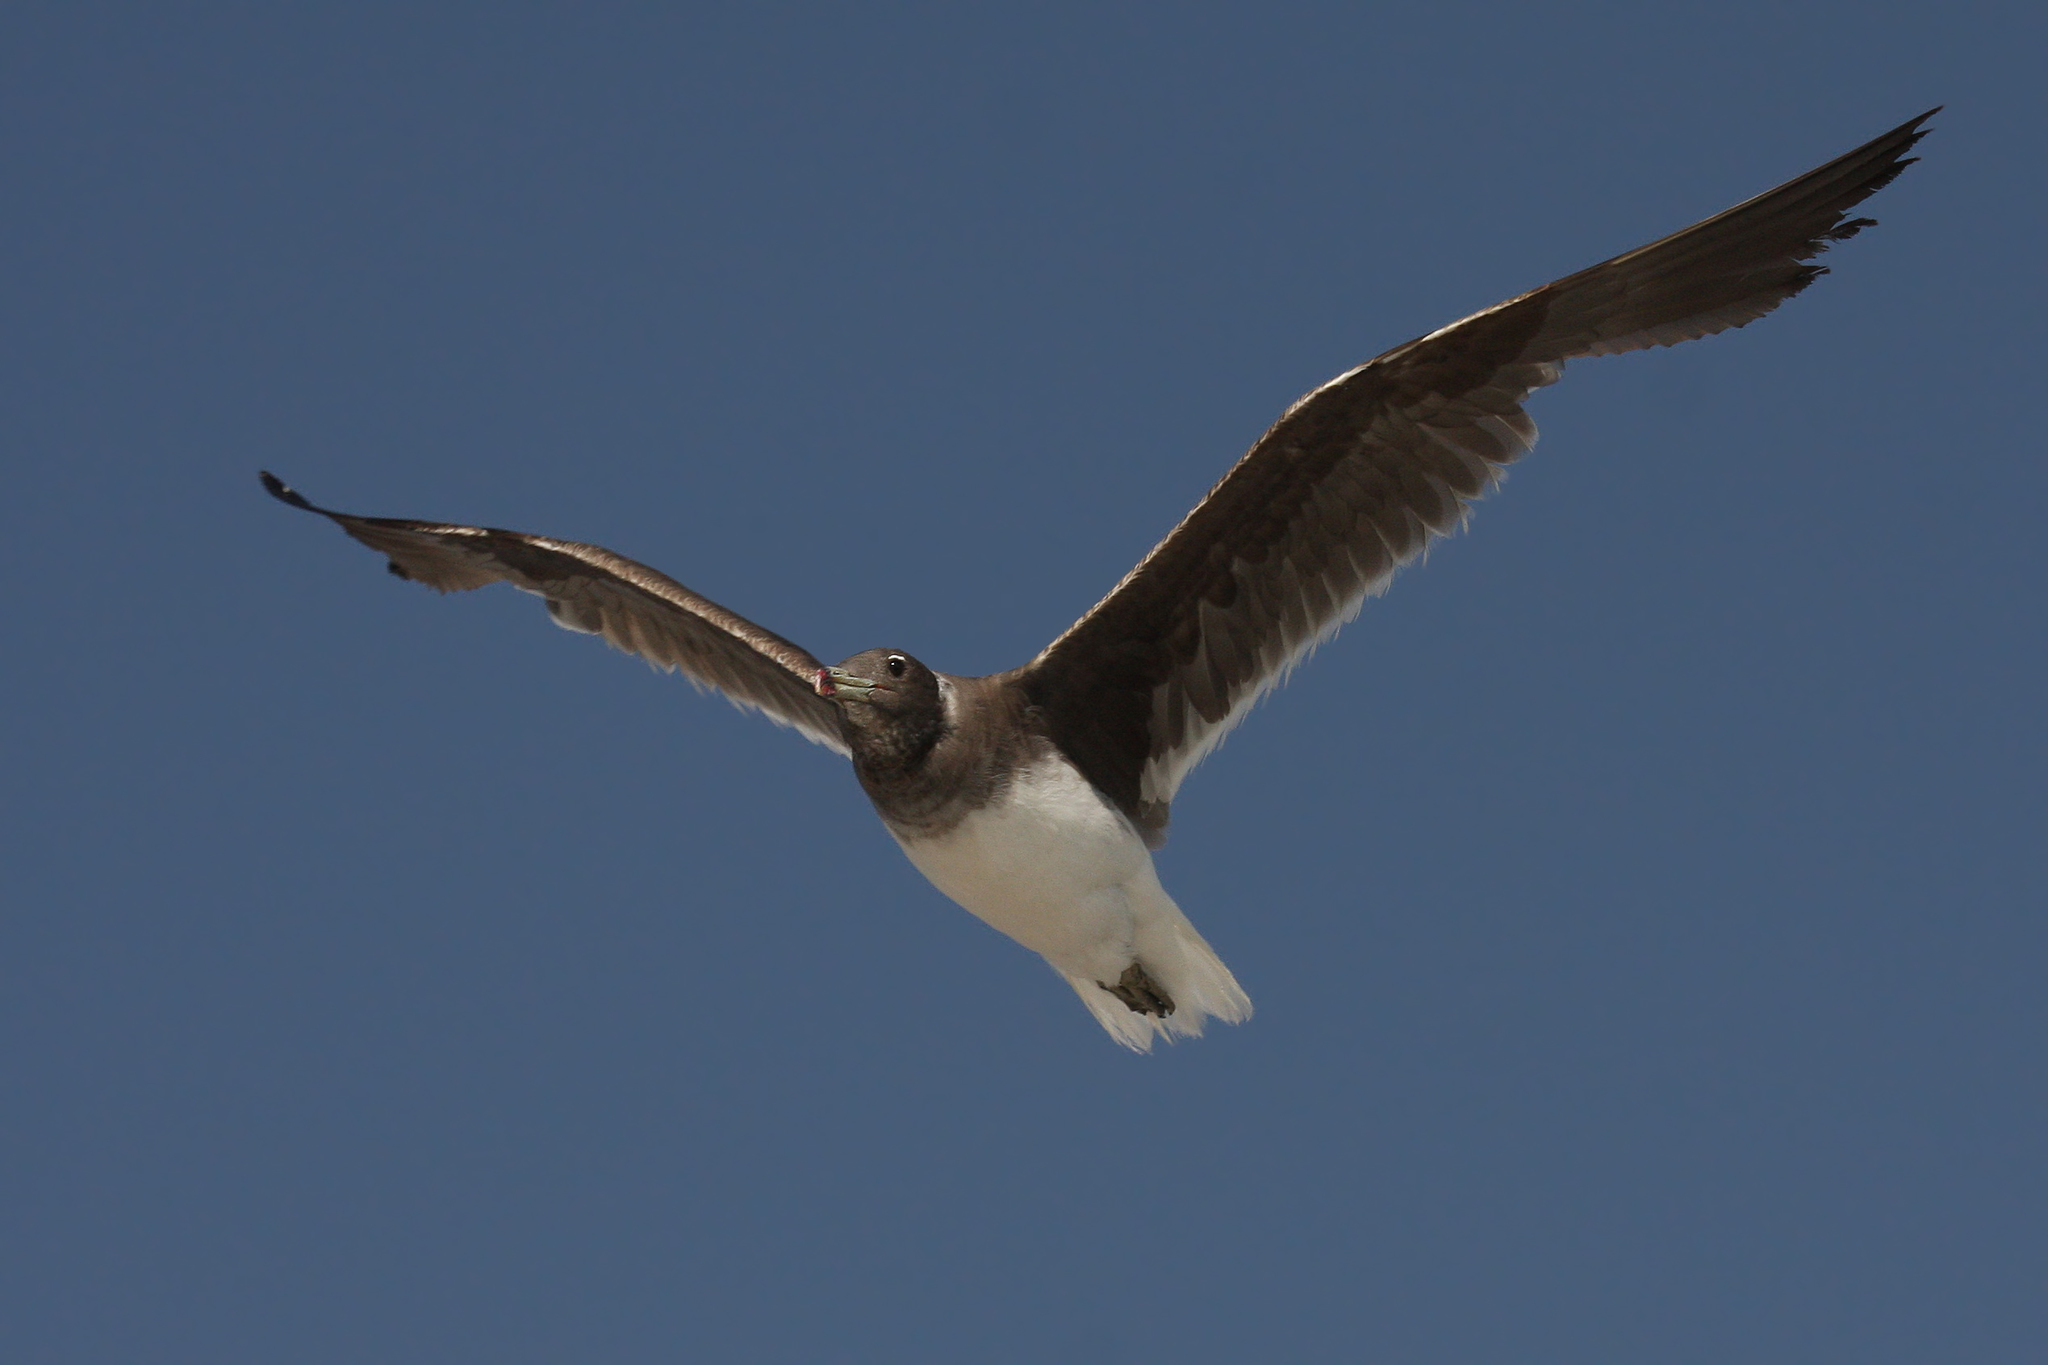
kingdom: Animalia
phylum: Chordata
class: Aves
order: Charadriiformes
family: Laridae
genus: Ichthyaetus
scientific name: Ichthyaetus hemprichii
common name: Sooty gull
